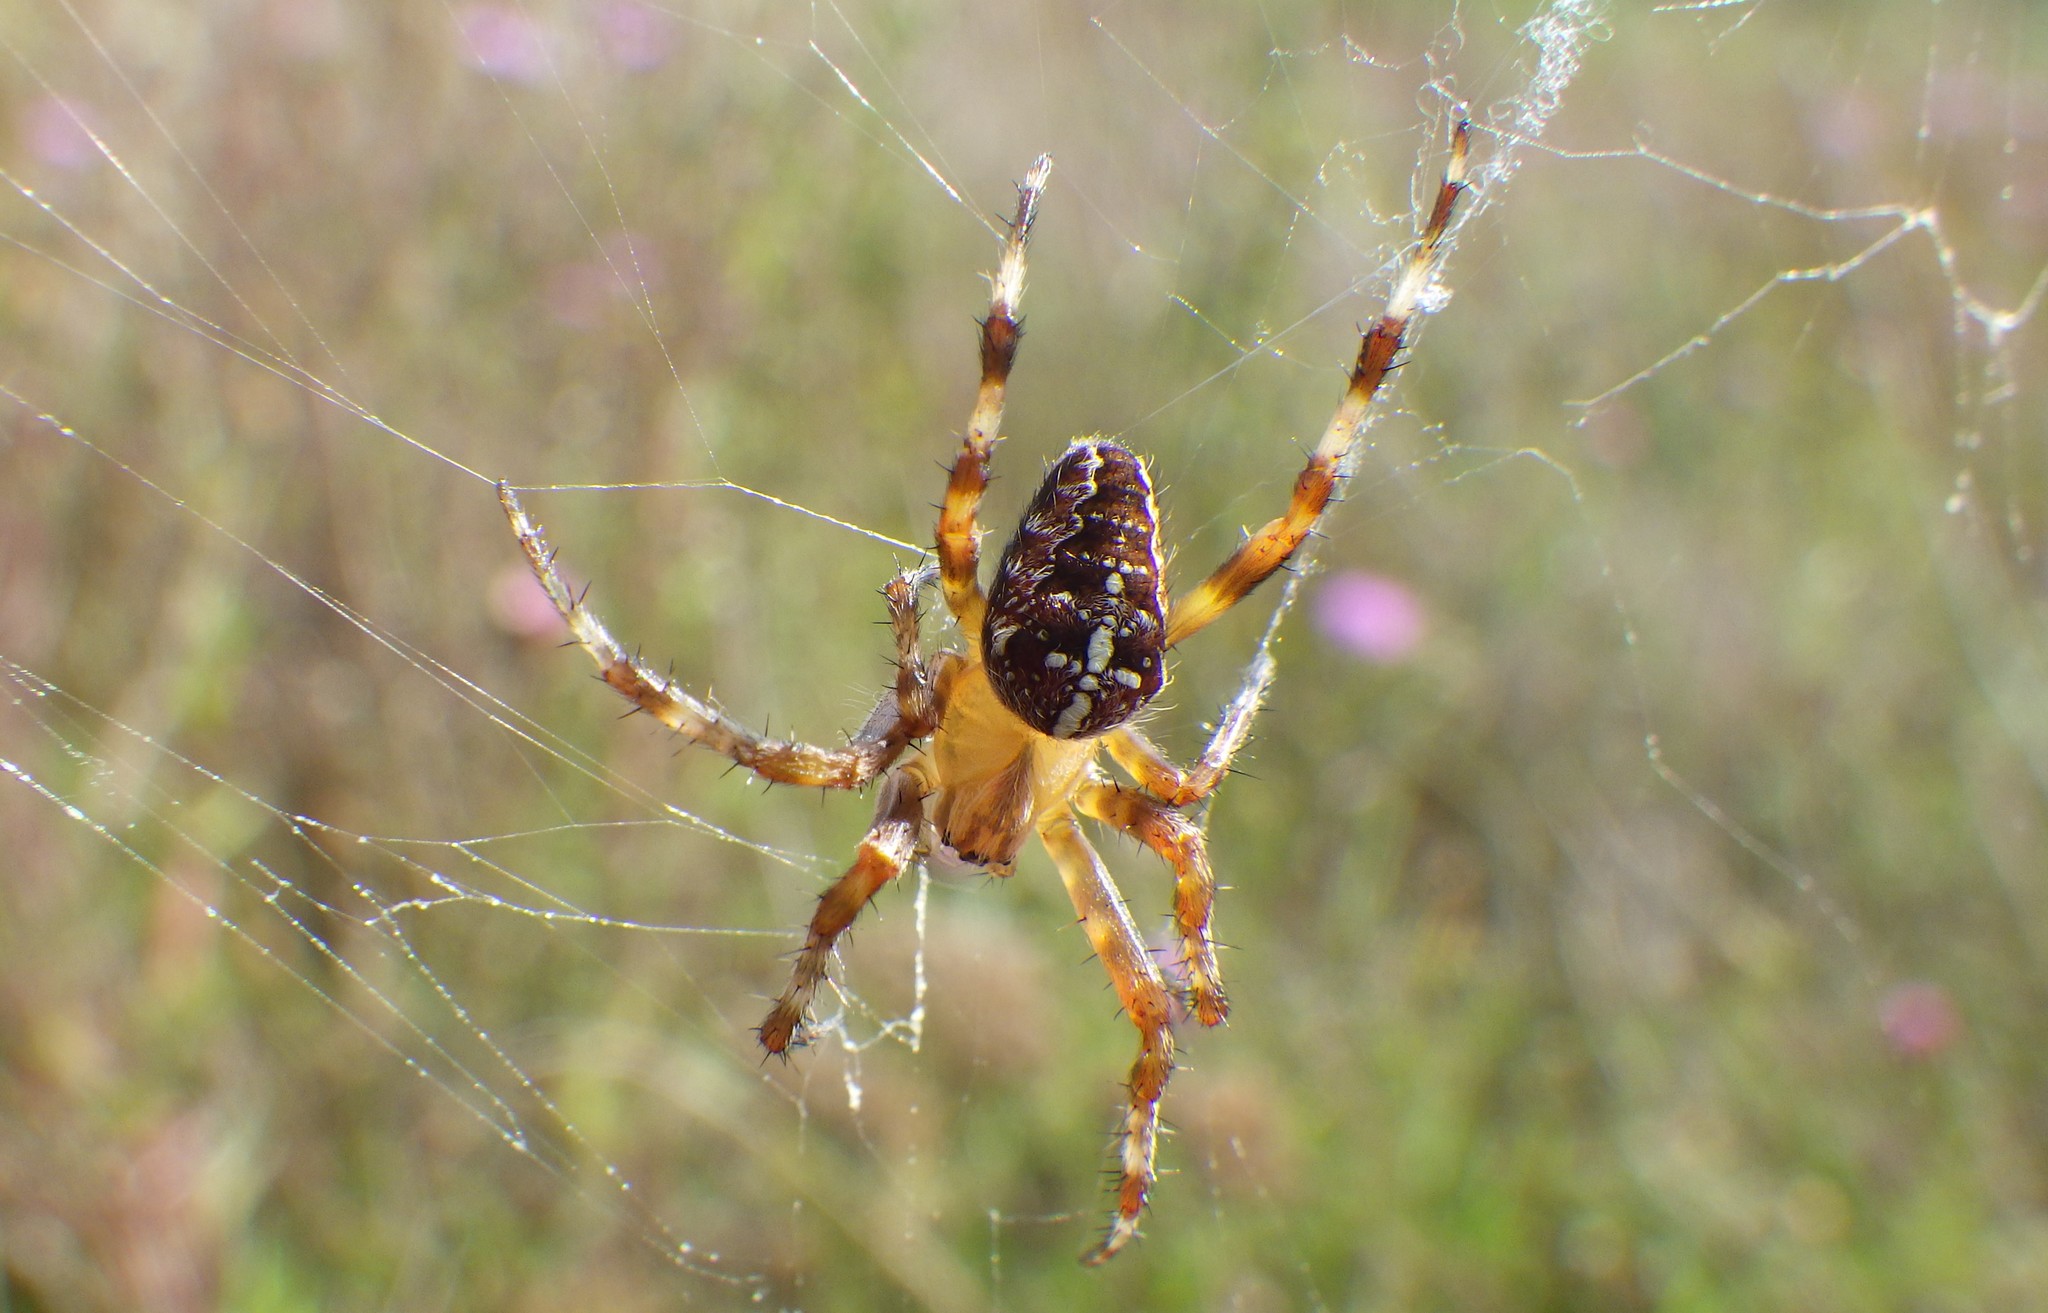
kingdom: Animalia
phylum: Arthropoda
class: Arachnida
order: Araneae
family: Araneidae
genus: Araneus
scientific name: Araneus diadematus
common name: Cross orbweaver
